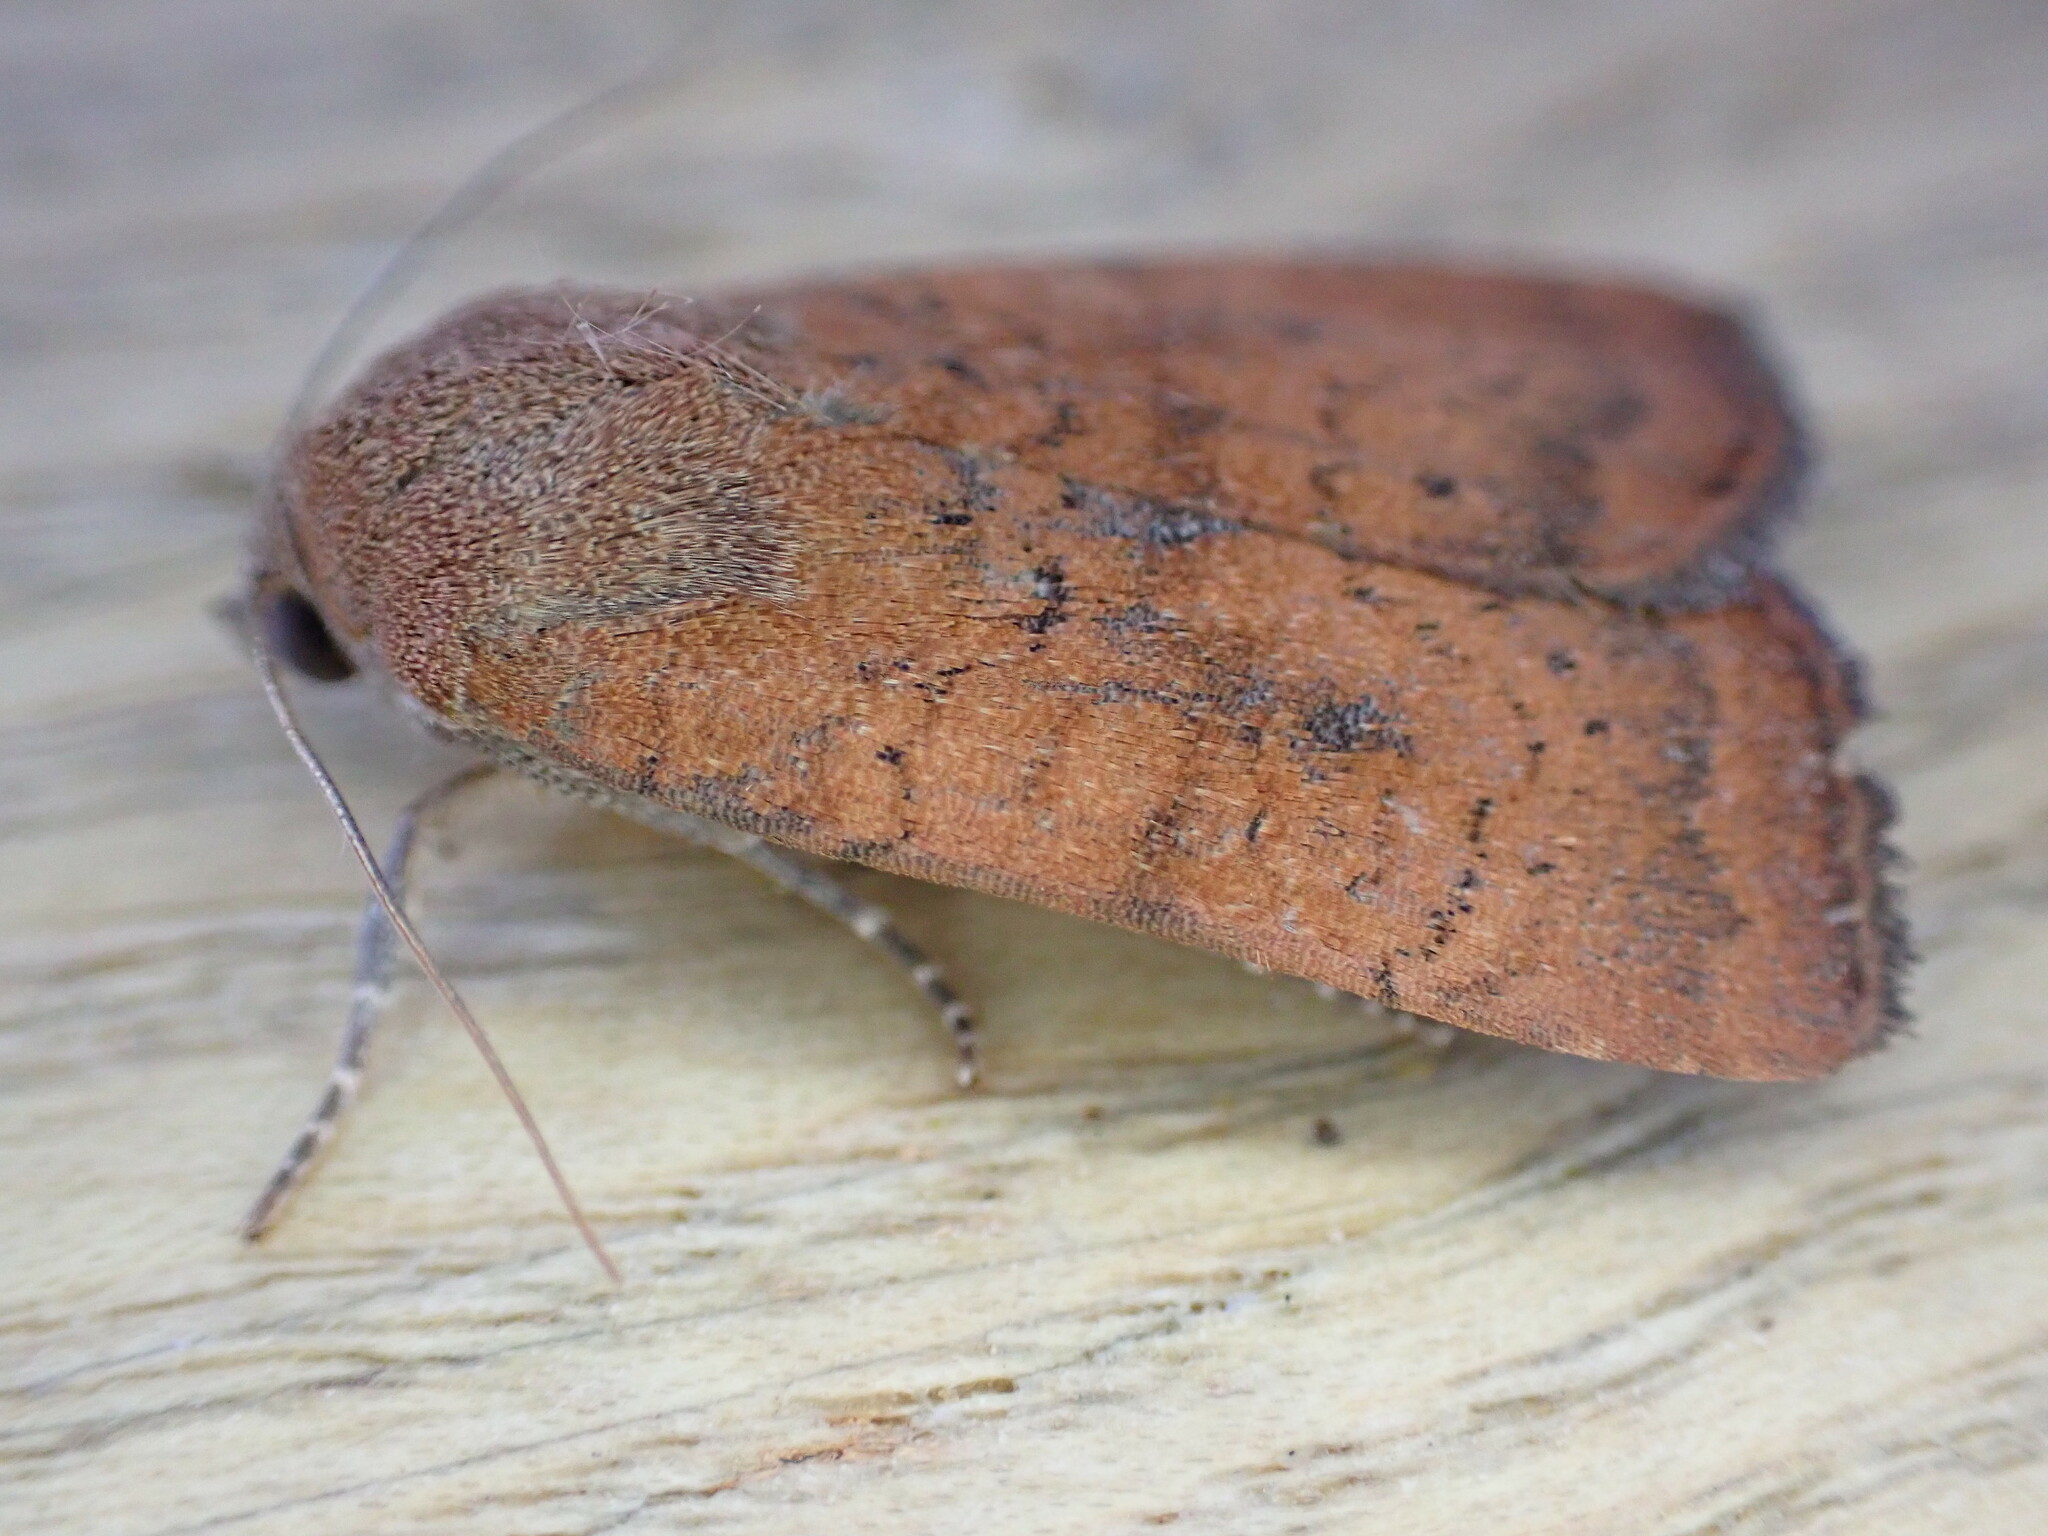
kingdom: Animalia
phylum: Arthropoda
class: Insecta
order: Lepidoptera
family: Noctuidae
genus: Noctua
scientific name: Noctua interjecta
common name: Least yellow underwing
